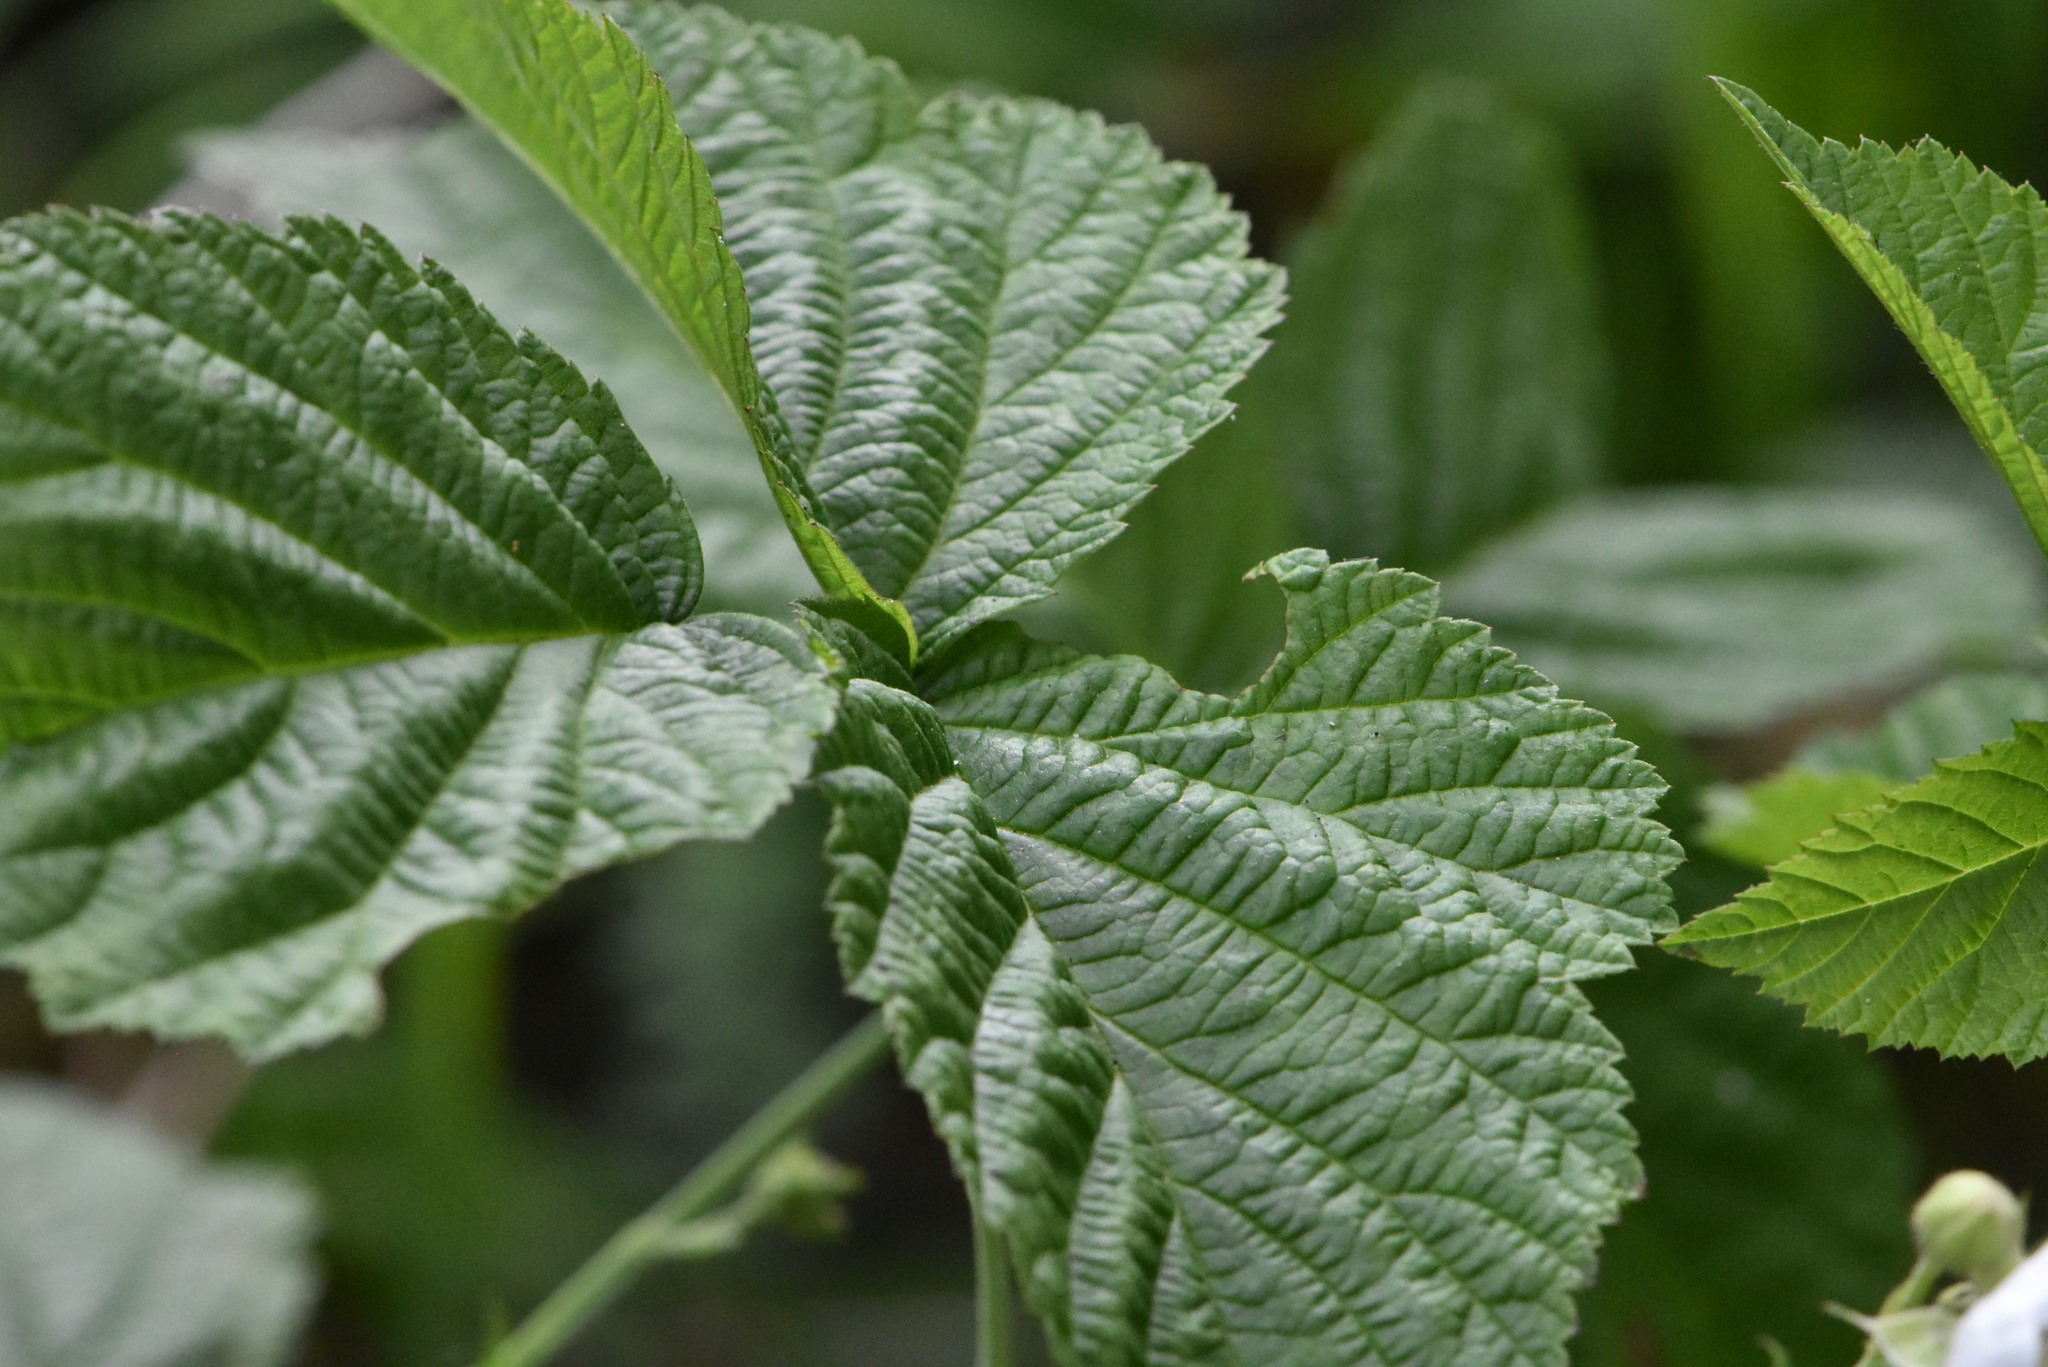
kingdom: Plantae
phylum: Tracheophyta
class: Magnoliopsida
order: Rosales
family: Rosaceae
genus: Rubus
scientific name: Rubus caesius
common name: Dewberry
